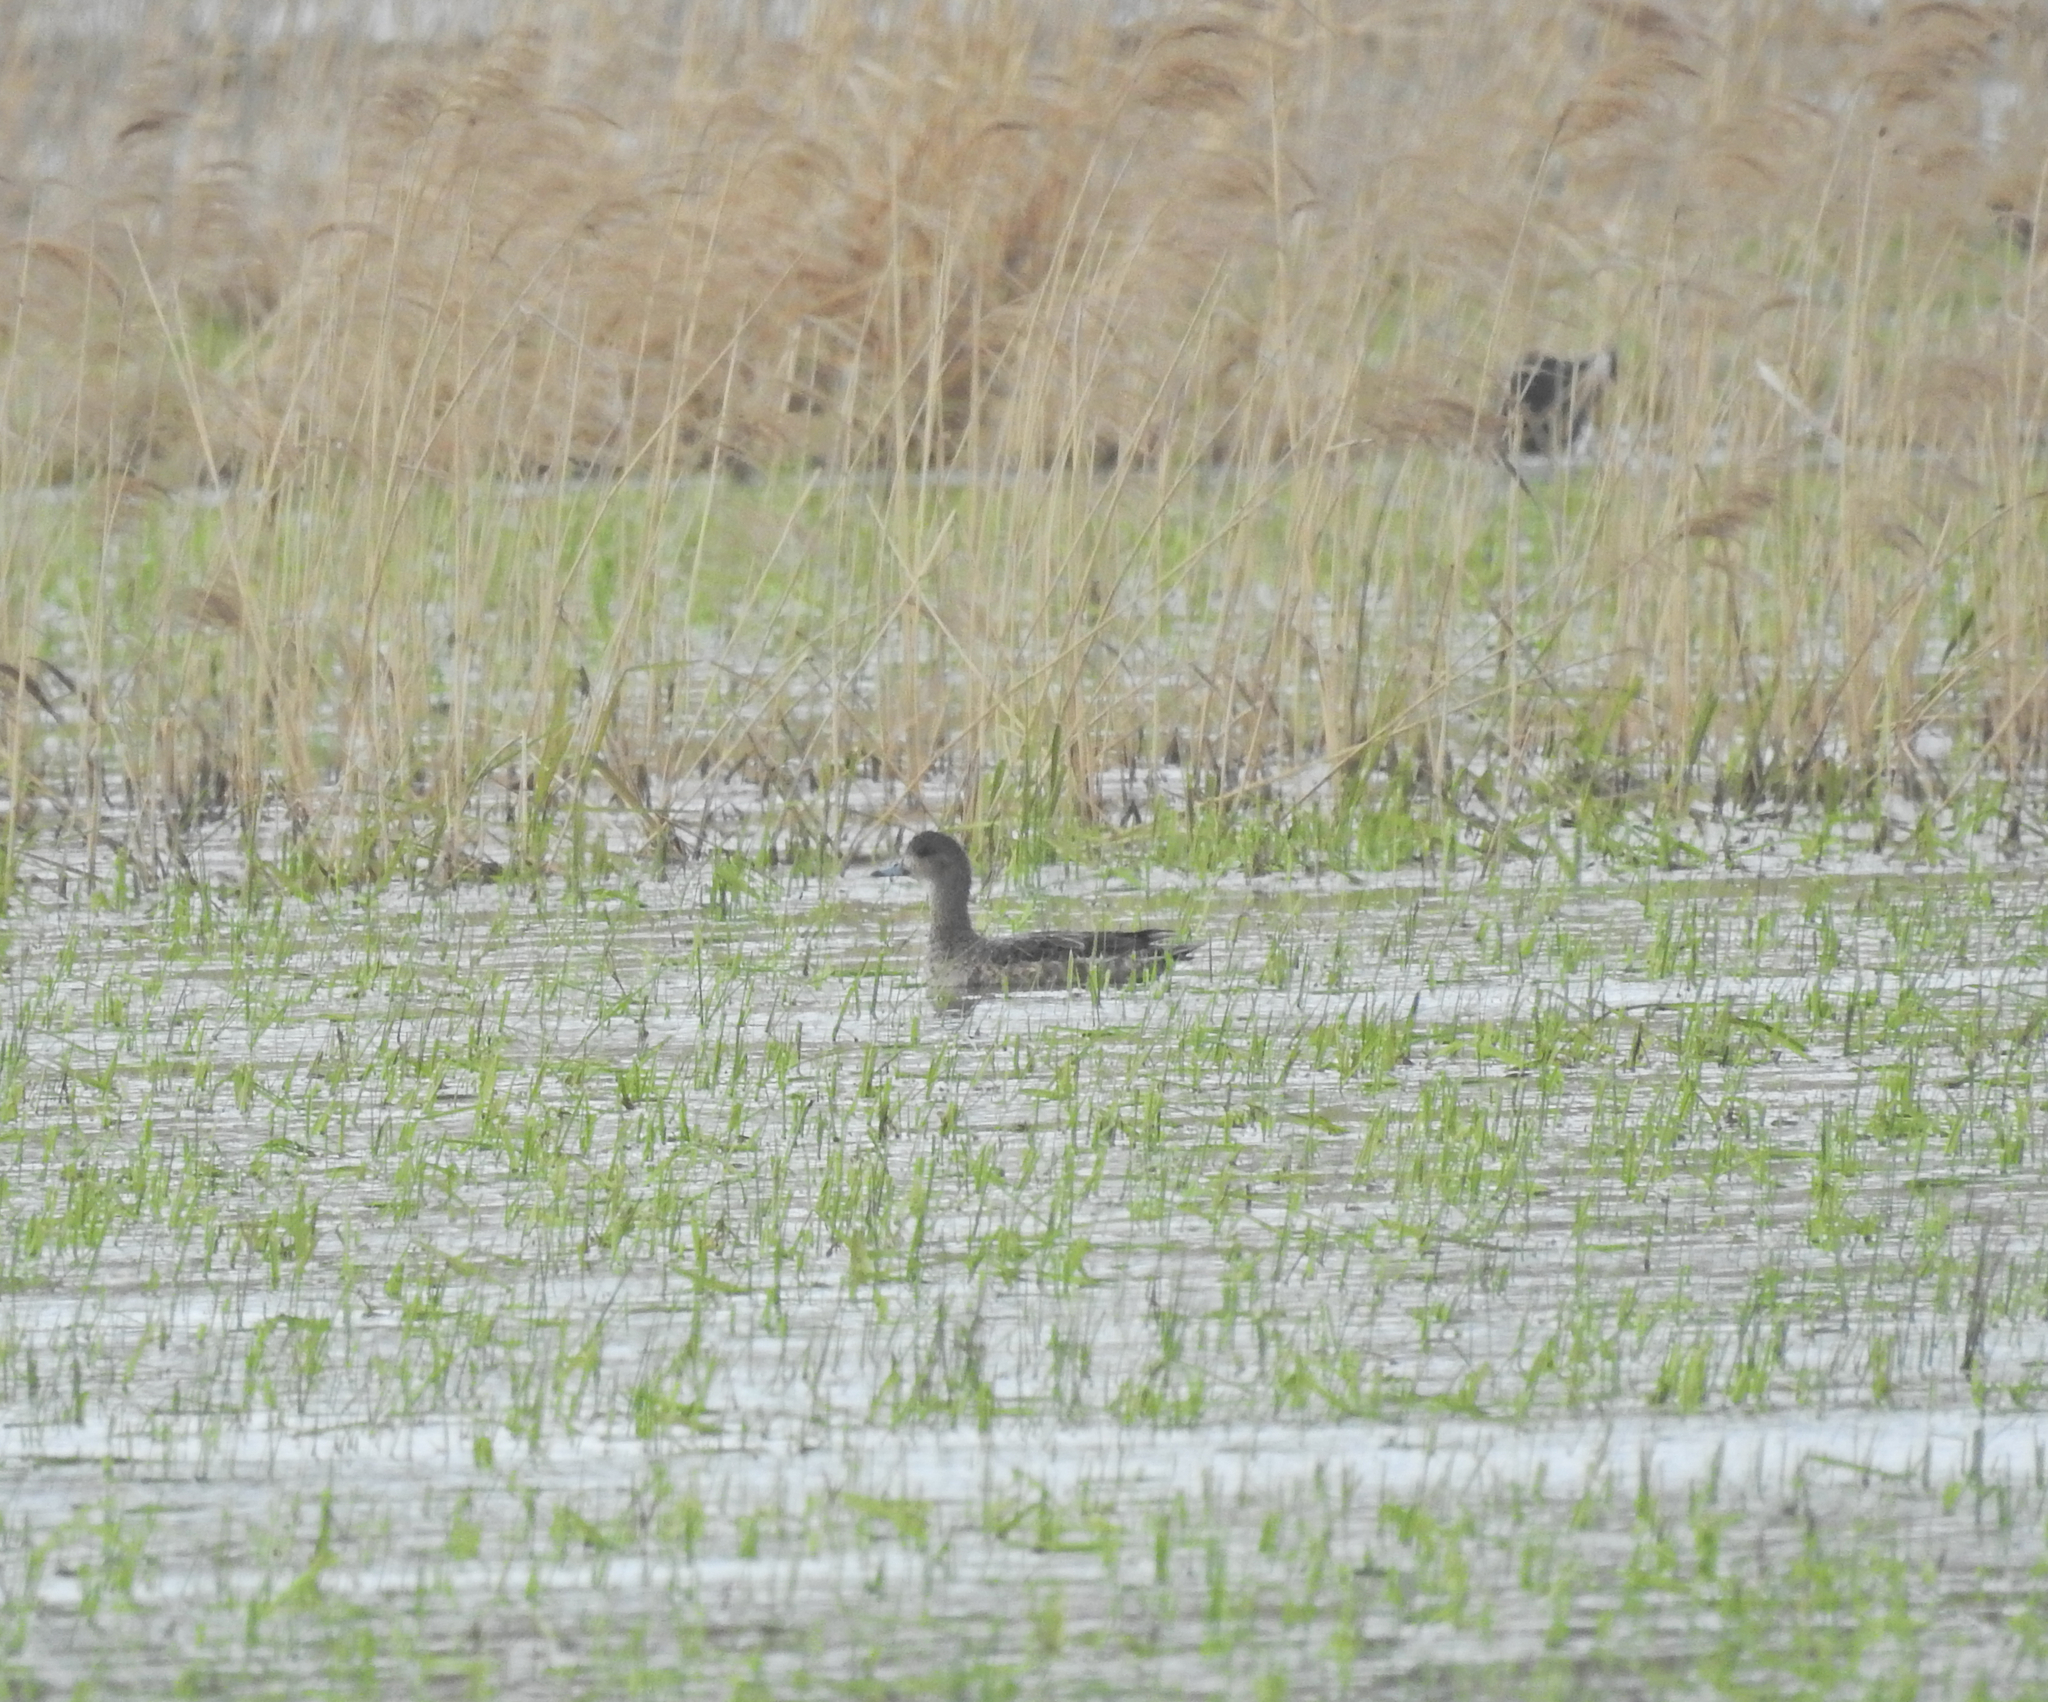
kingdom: Animalia
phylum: Chordata
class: Aves
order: Anseriformes
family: Anatidae
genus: Mareca
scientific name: Mareca penelope
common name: Eurasian wigeon
